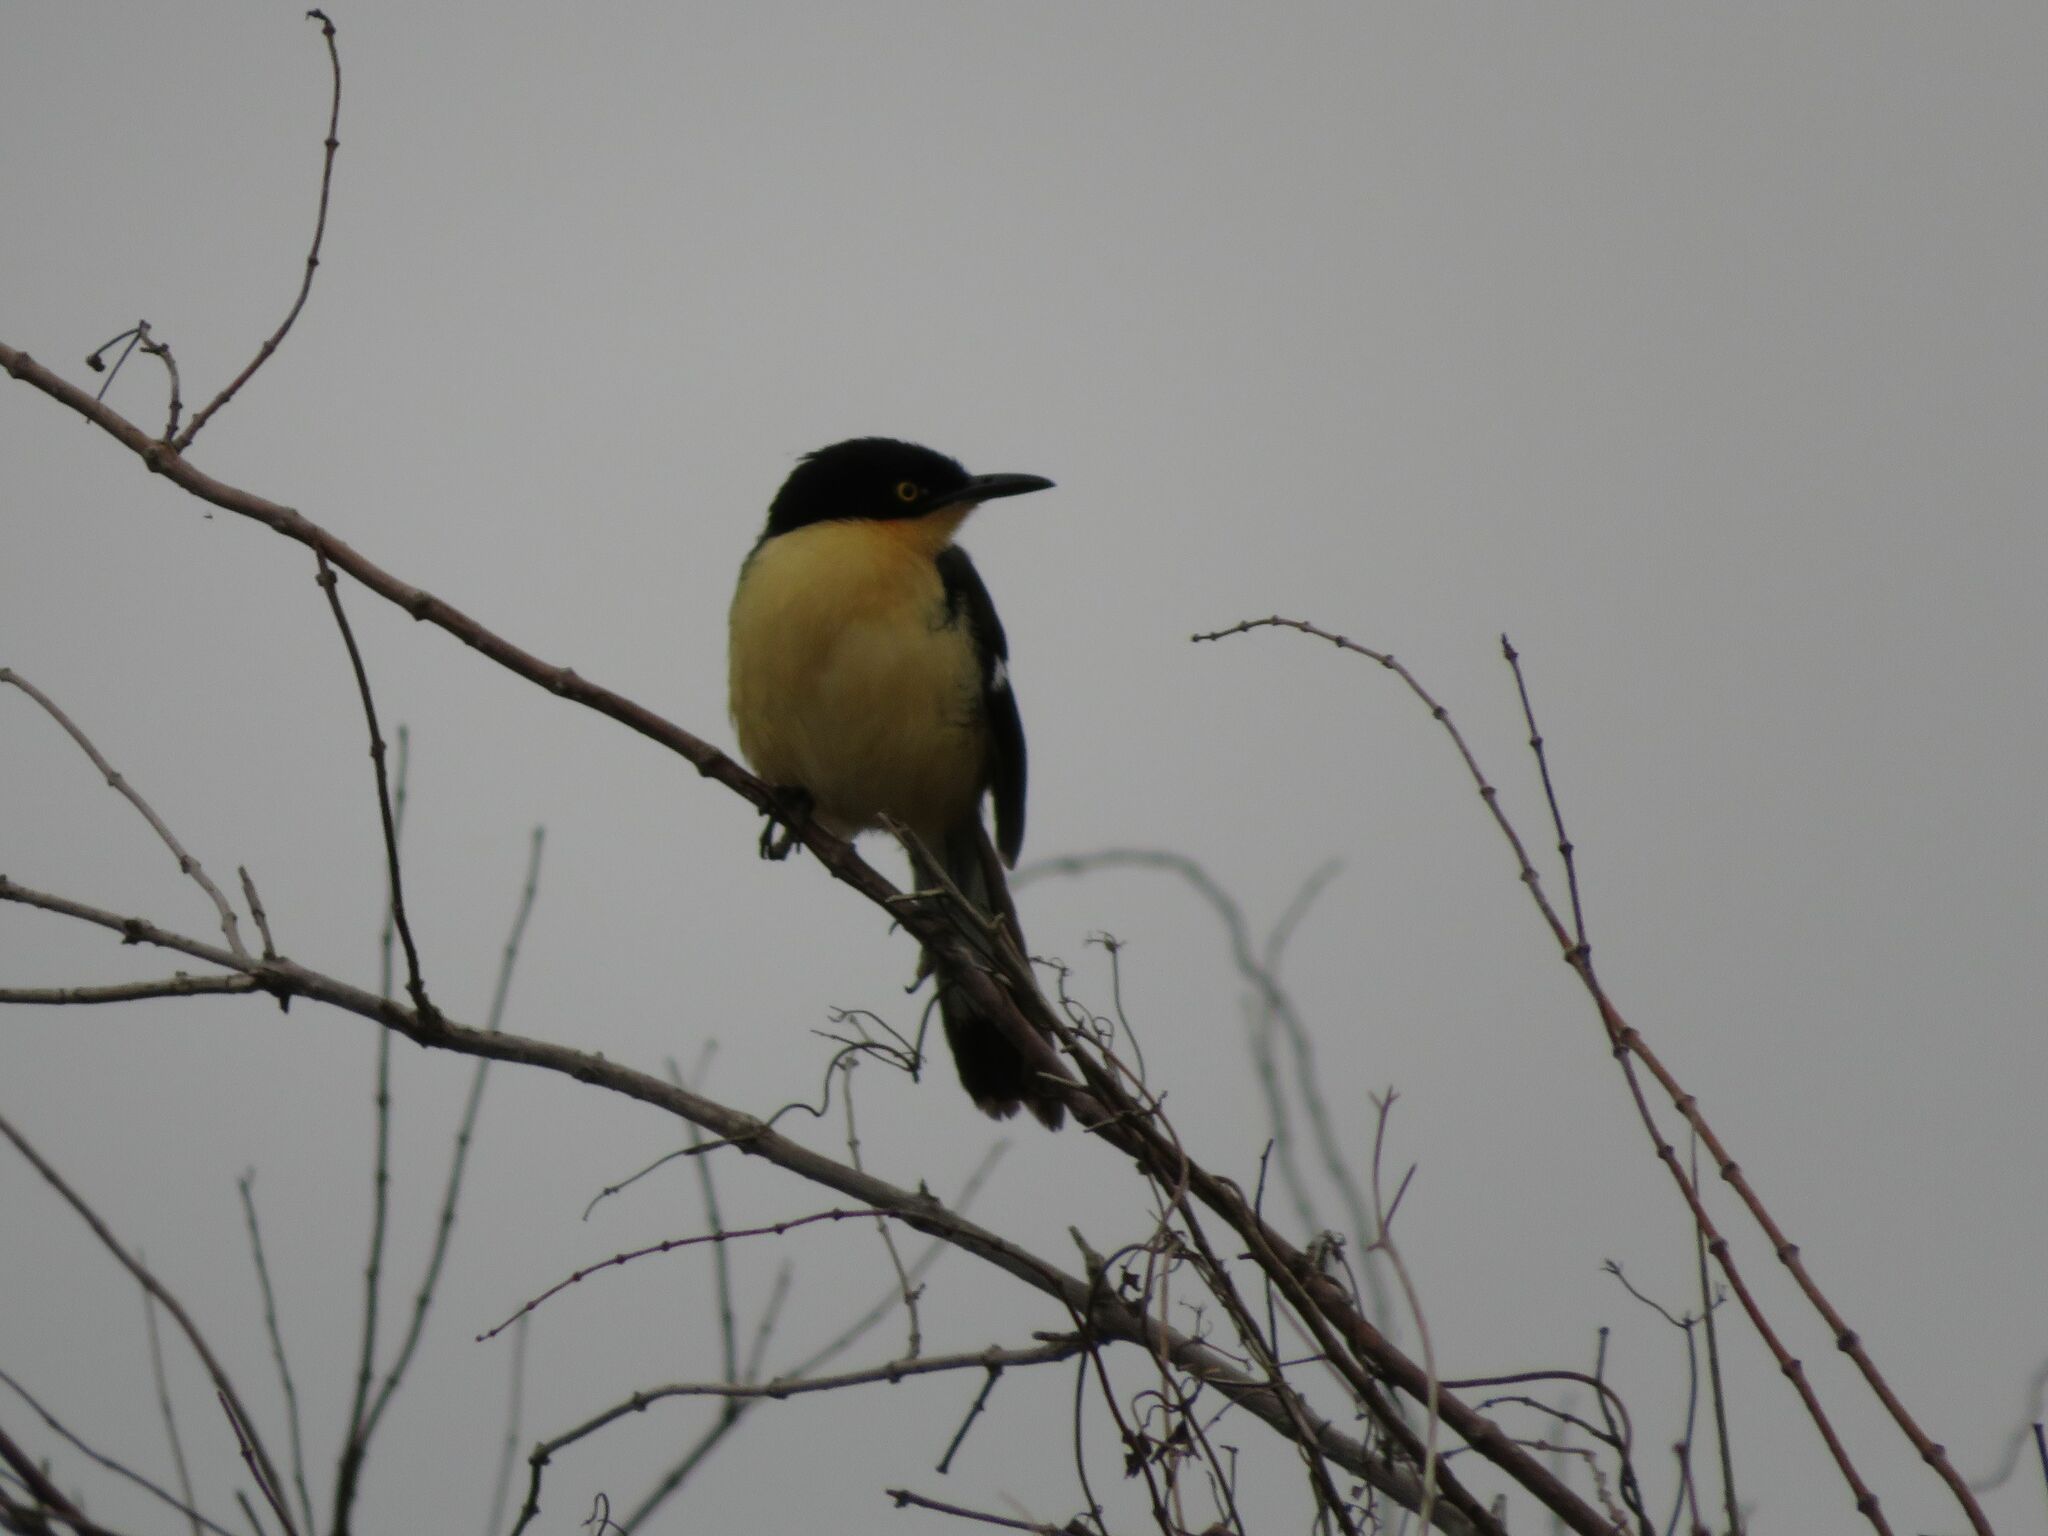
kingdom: Animalia
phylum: Chordata
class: Aves
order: Passeriformes
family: Donacobiidae
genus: Donacobius
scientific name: Donacobius atricapilla
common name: Black-capped donacobius
